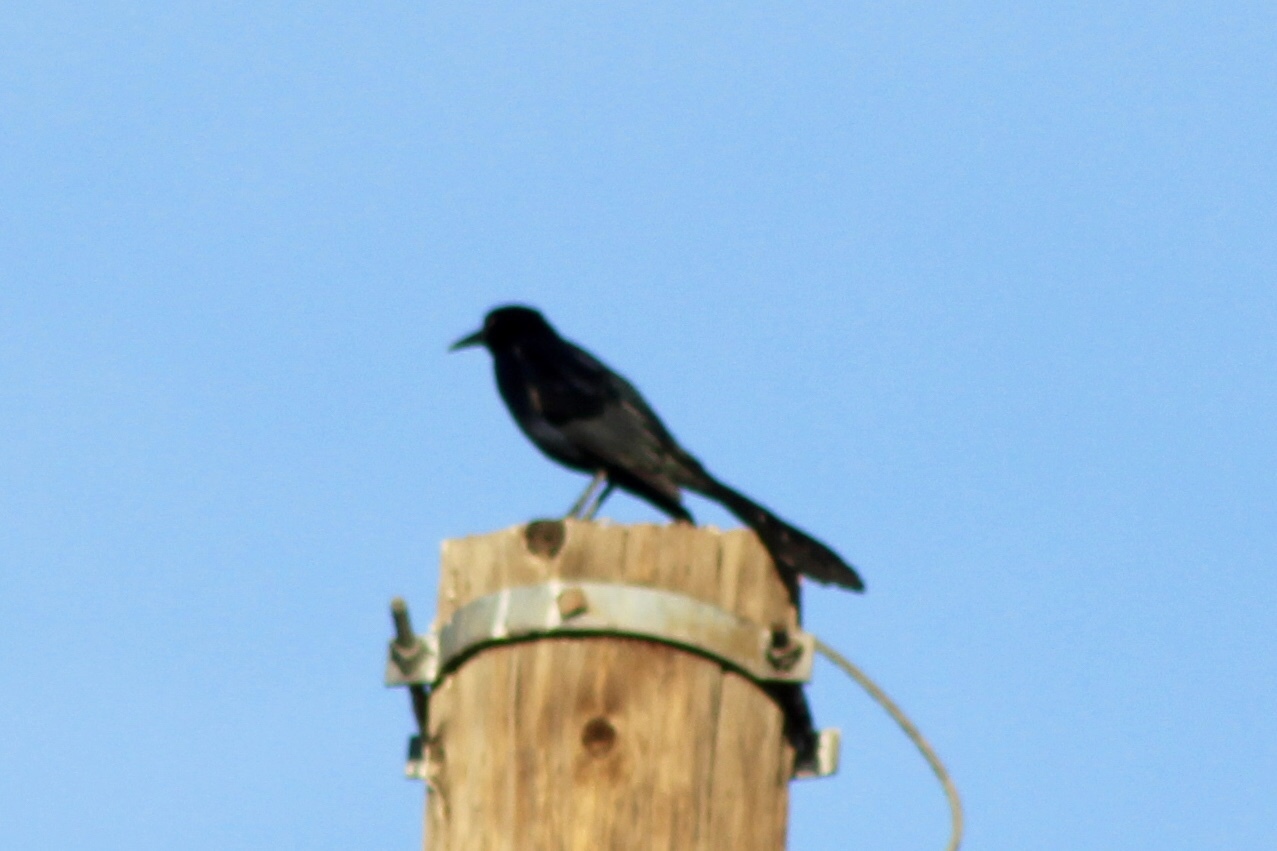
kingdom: Animalia
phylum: Chordata
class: Aves
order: Passeriformes
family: Icteridae
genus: Quiscalus
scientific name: Quiscalus mexicanus
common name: Great-tailed grackle
